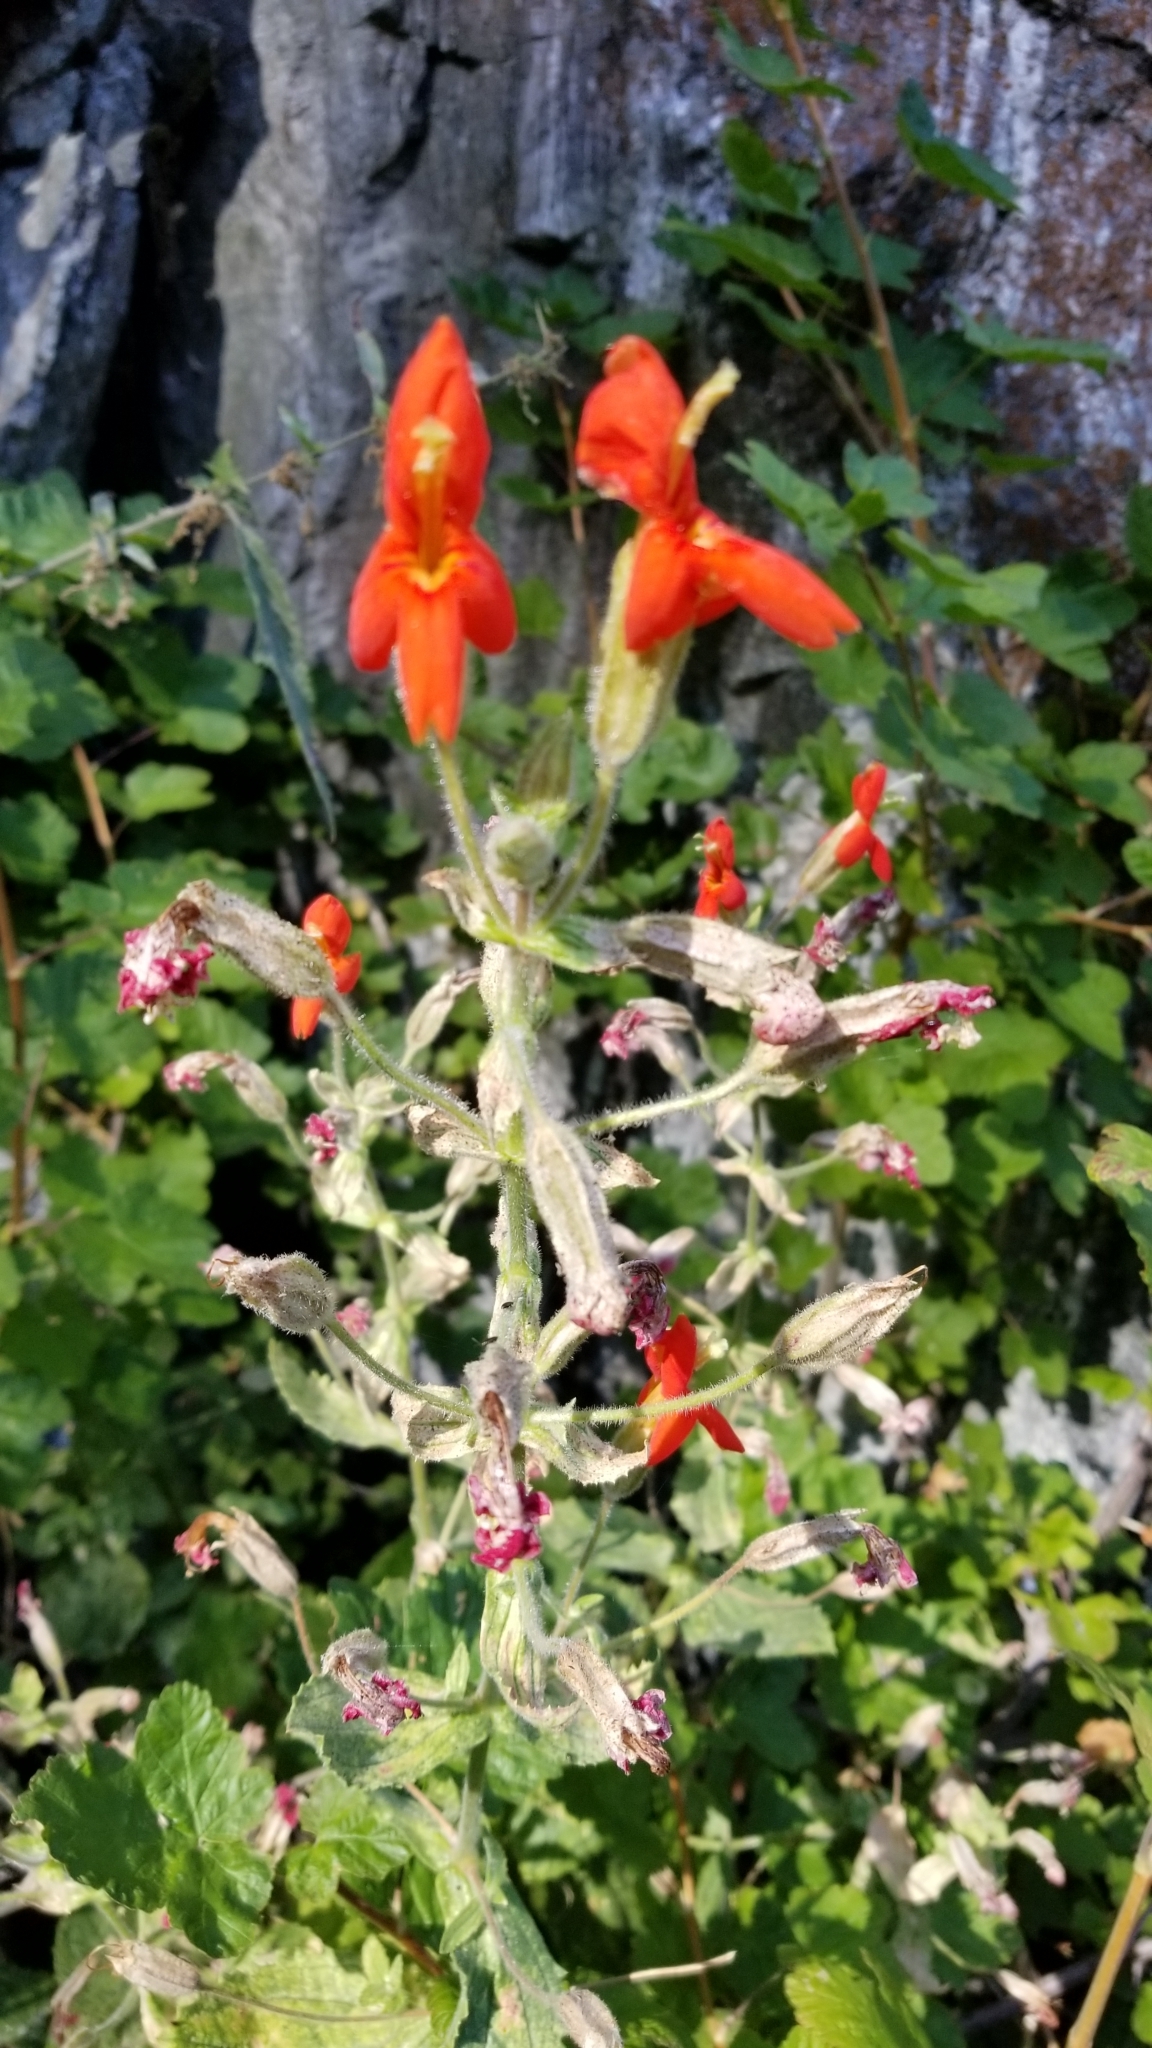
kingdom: Plantae
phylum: Tracheophyta
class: Magnoliopsida
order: Lamiales
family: Phrymaceae
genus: Erythranthe
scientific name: Erythranthe cardinalis
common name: Scarlet monkey-flower
